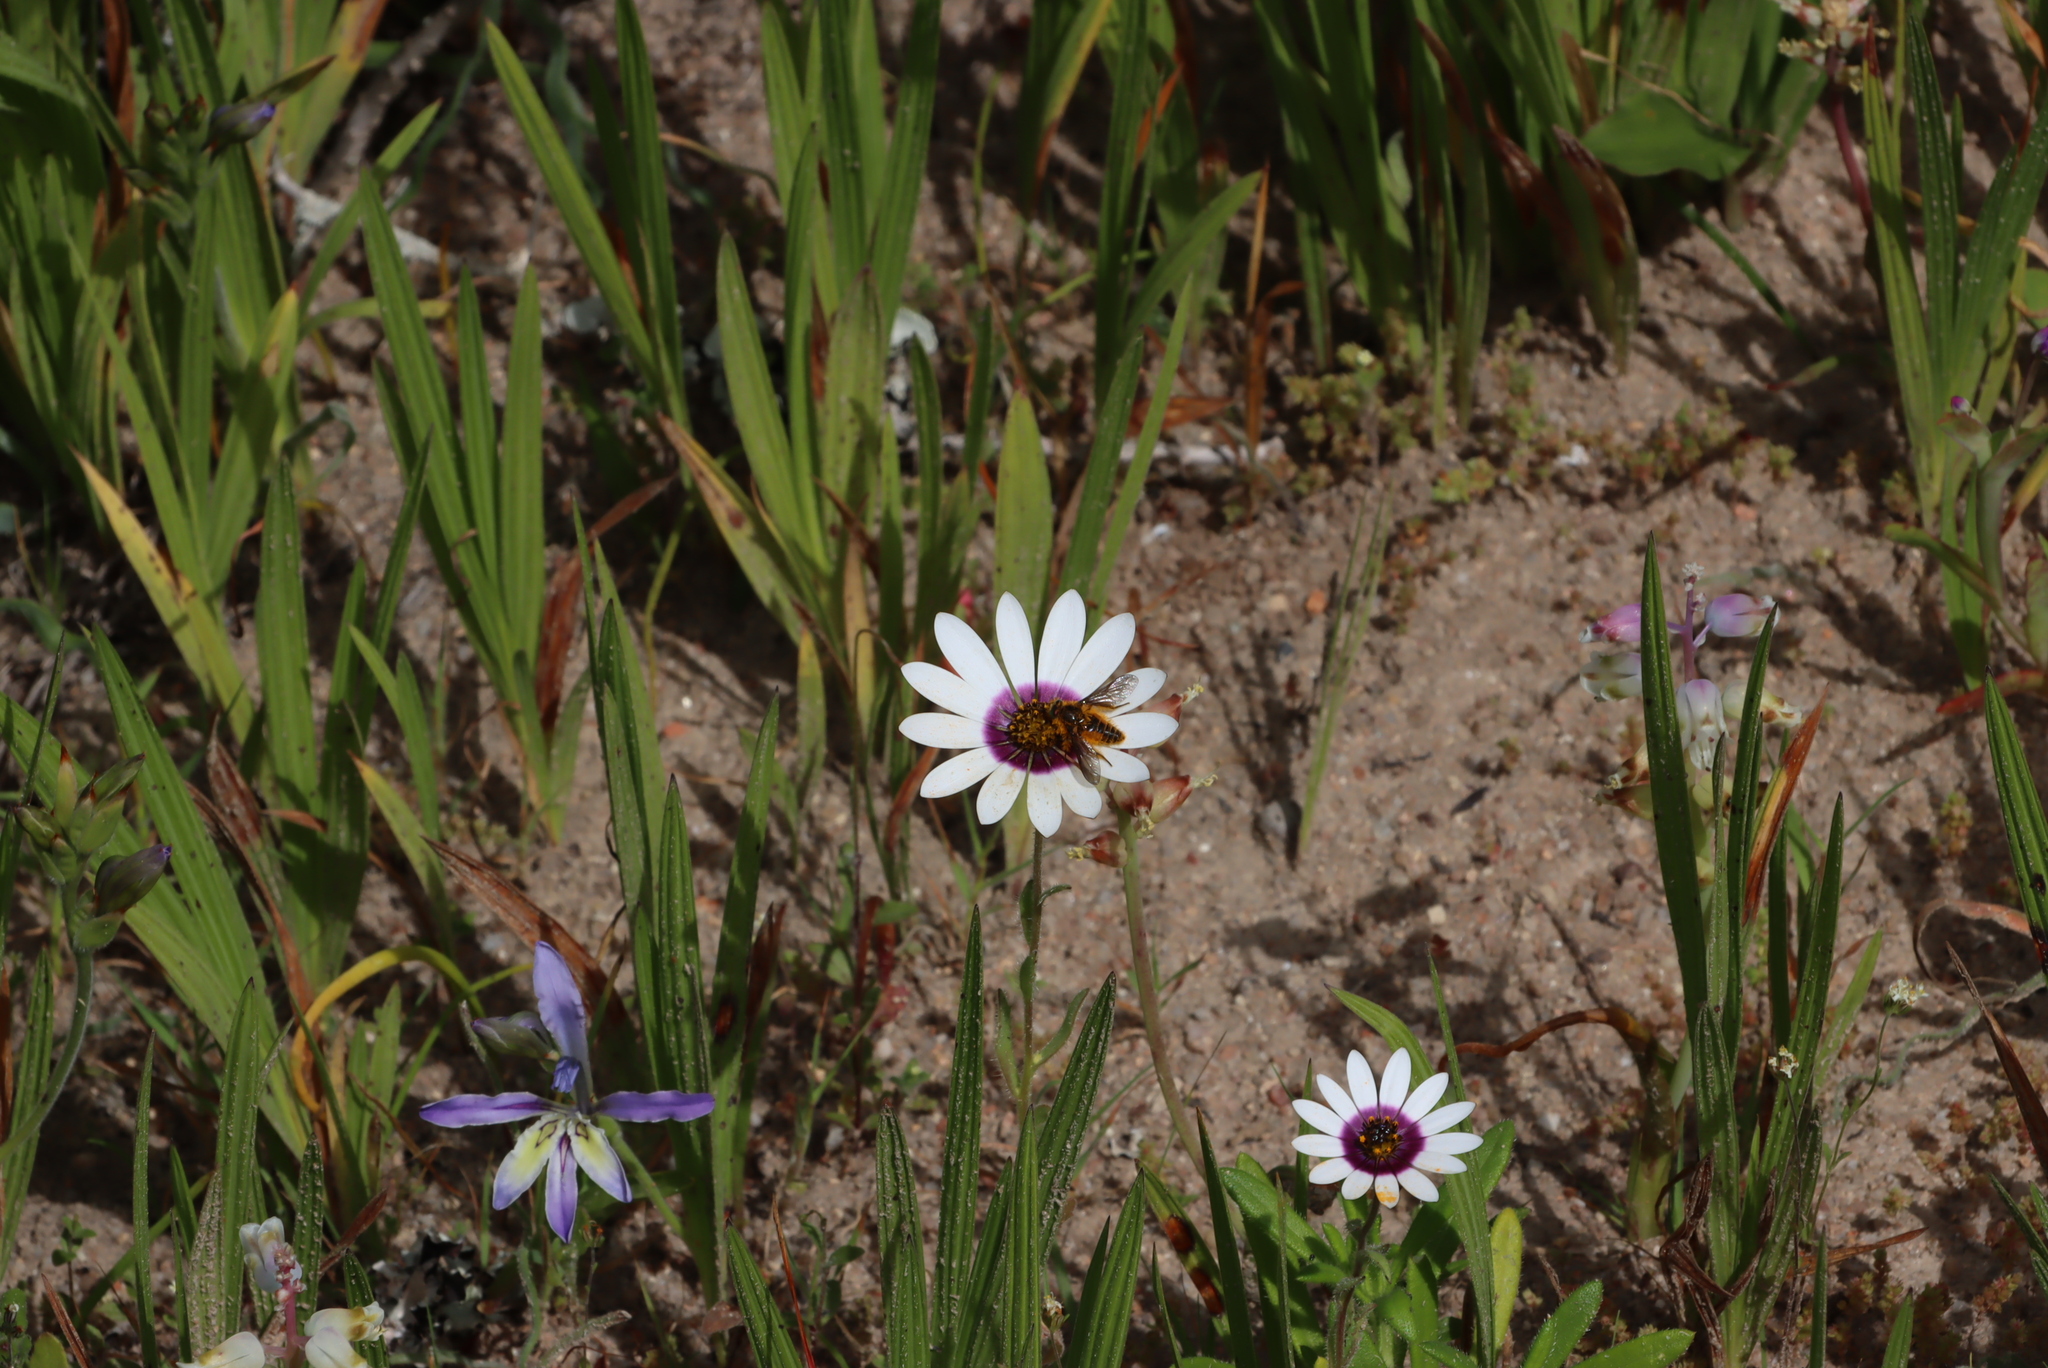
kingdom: Plantae
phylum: Tracheophyta
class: Magnoliopsida
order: Asterales
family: Asteraceae
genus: Felicia
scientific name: Felicia elongata
